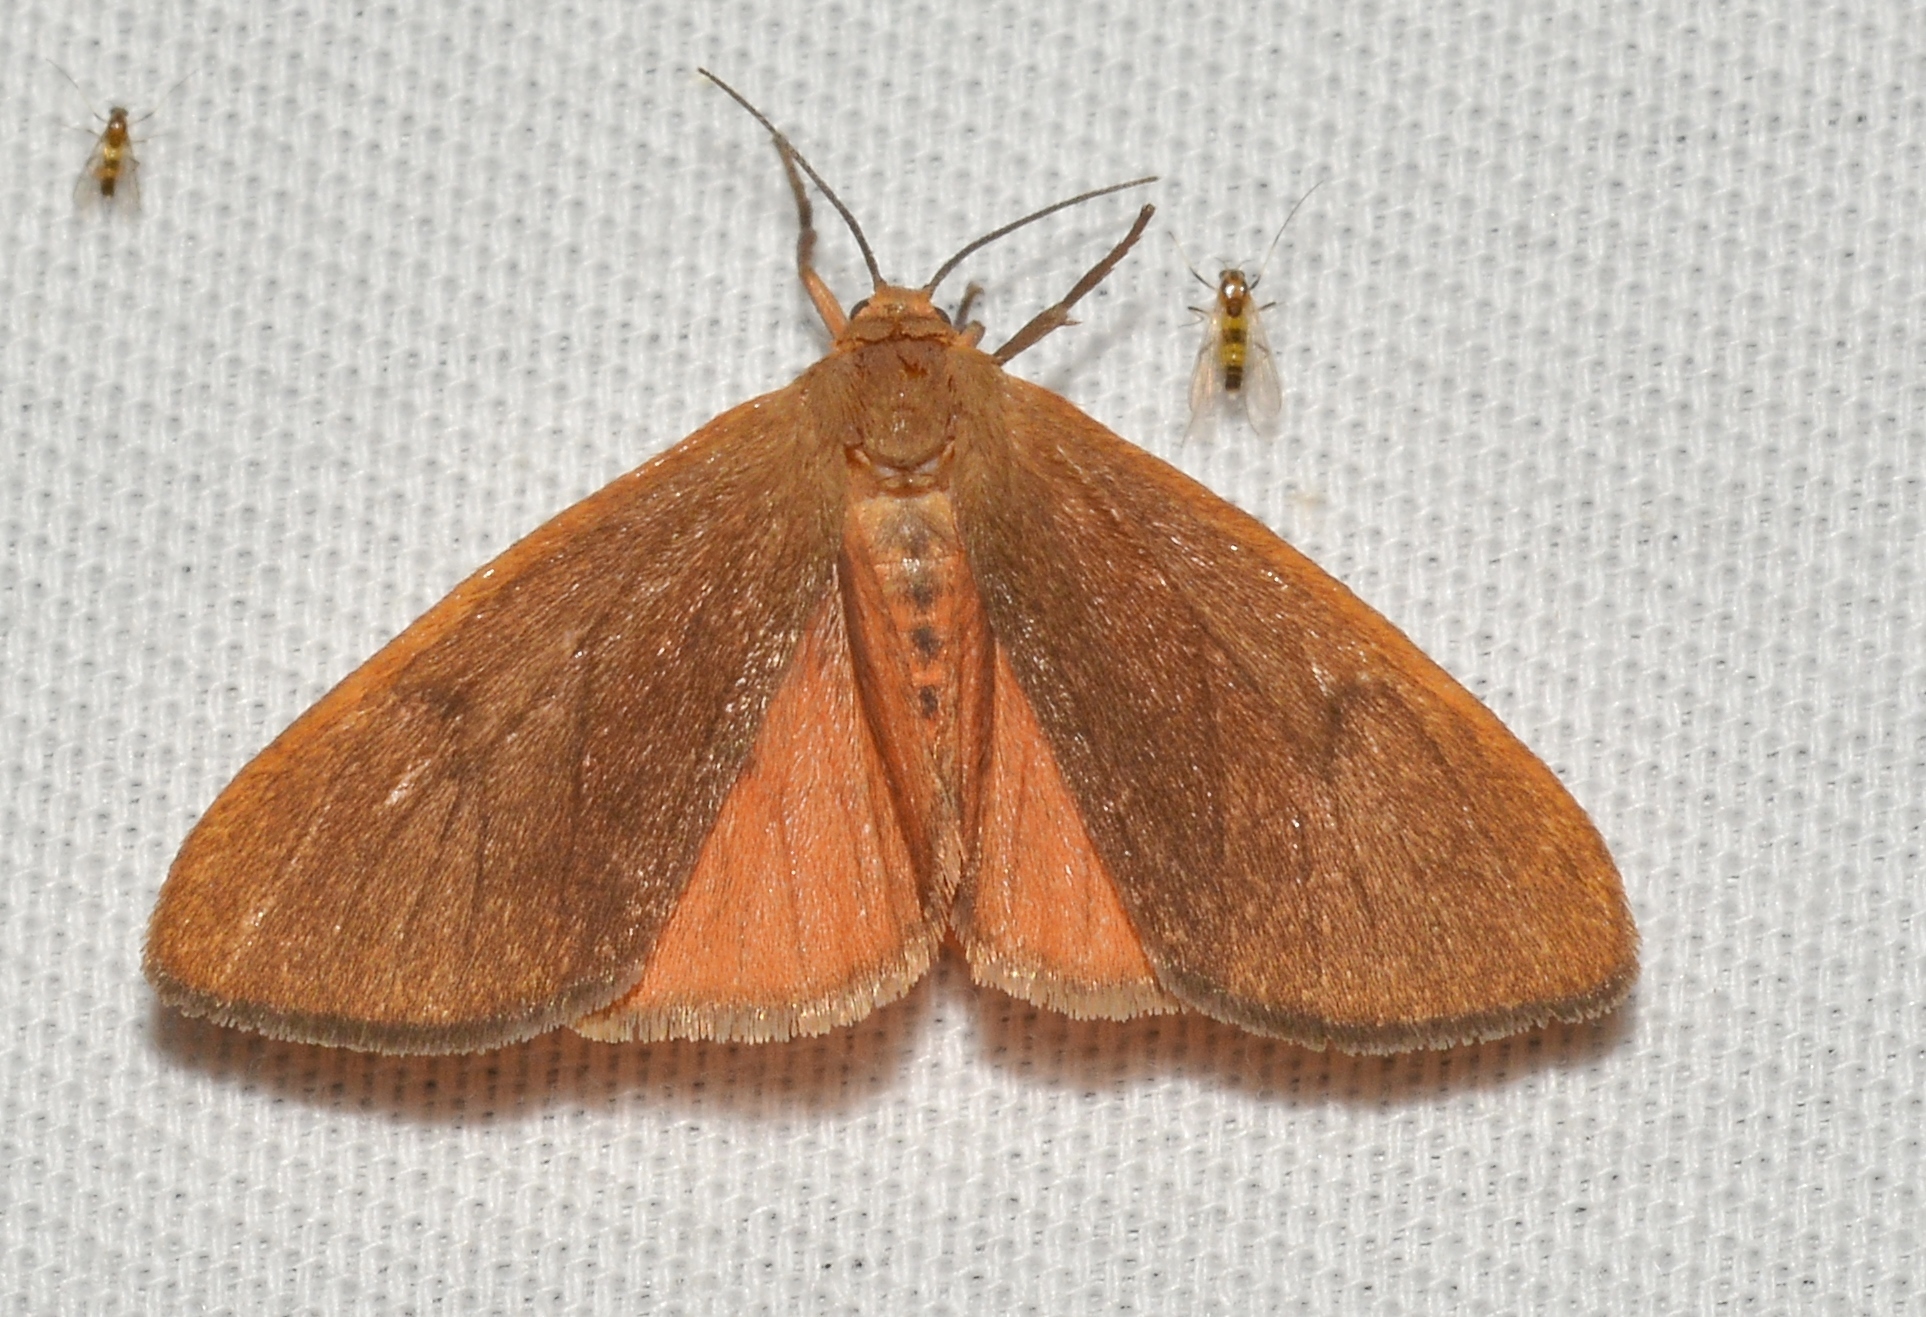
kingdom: Animalia
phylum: Arthropoda
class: Insecta
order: Lepidoptera
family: Erebidae
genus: Virbia
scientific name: Virbia opella
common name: Tawny virbia moth
